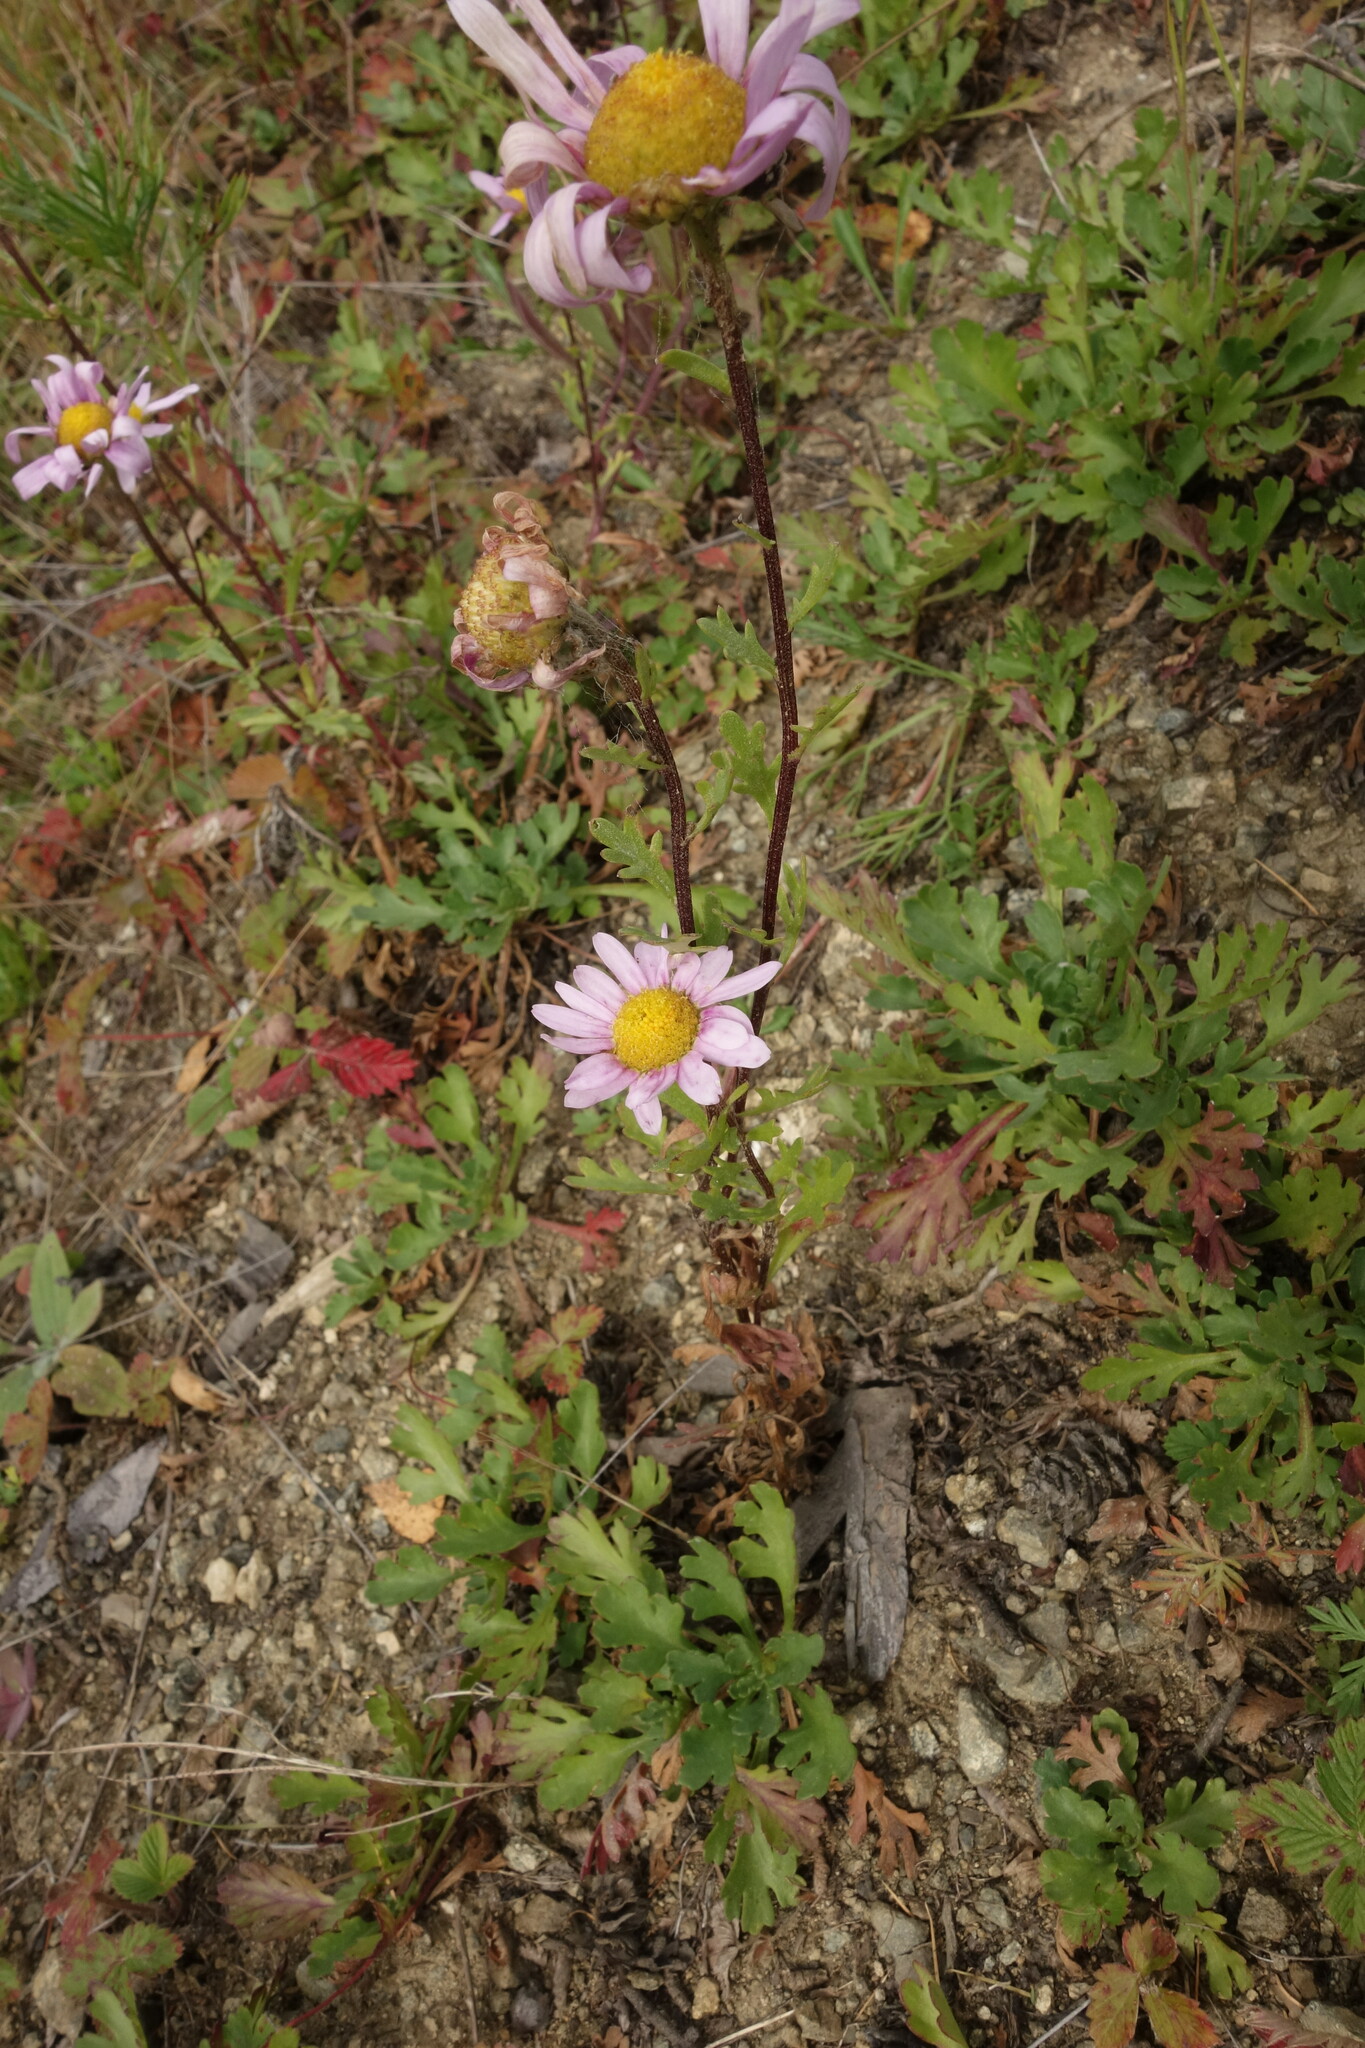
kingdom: Plantae
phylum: Tracheophyta
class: Magnoliopsida
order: Asterales
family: Asteraceae
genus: Chrysanthemum
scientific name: Chrysanthemum zawadzkii
